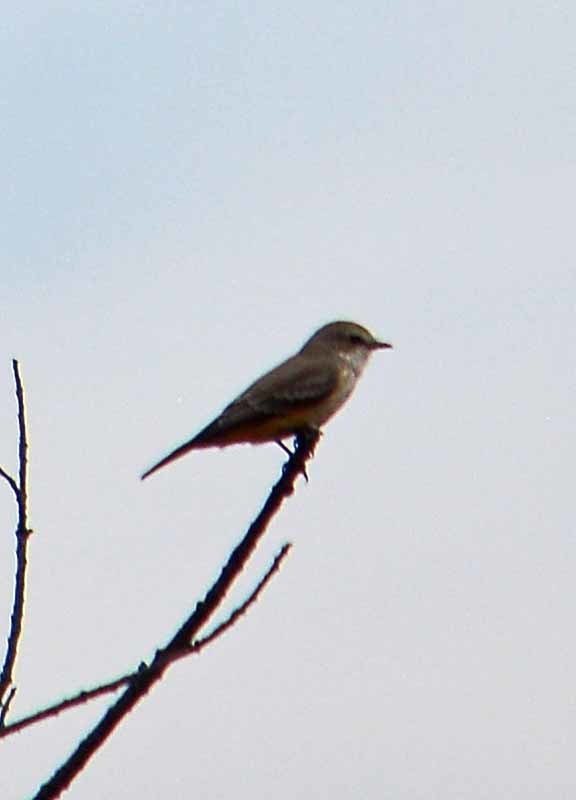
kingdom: Animalia
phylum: Chordata
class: Aves
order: Passeriformes
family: Tyrannidae
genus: Pyrocephalus
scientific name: Pyrocephalus rubinus
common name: Vermilion flycatcher
